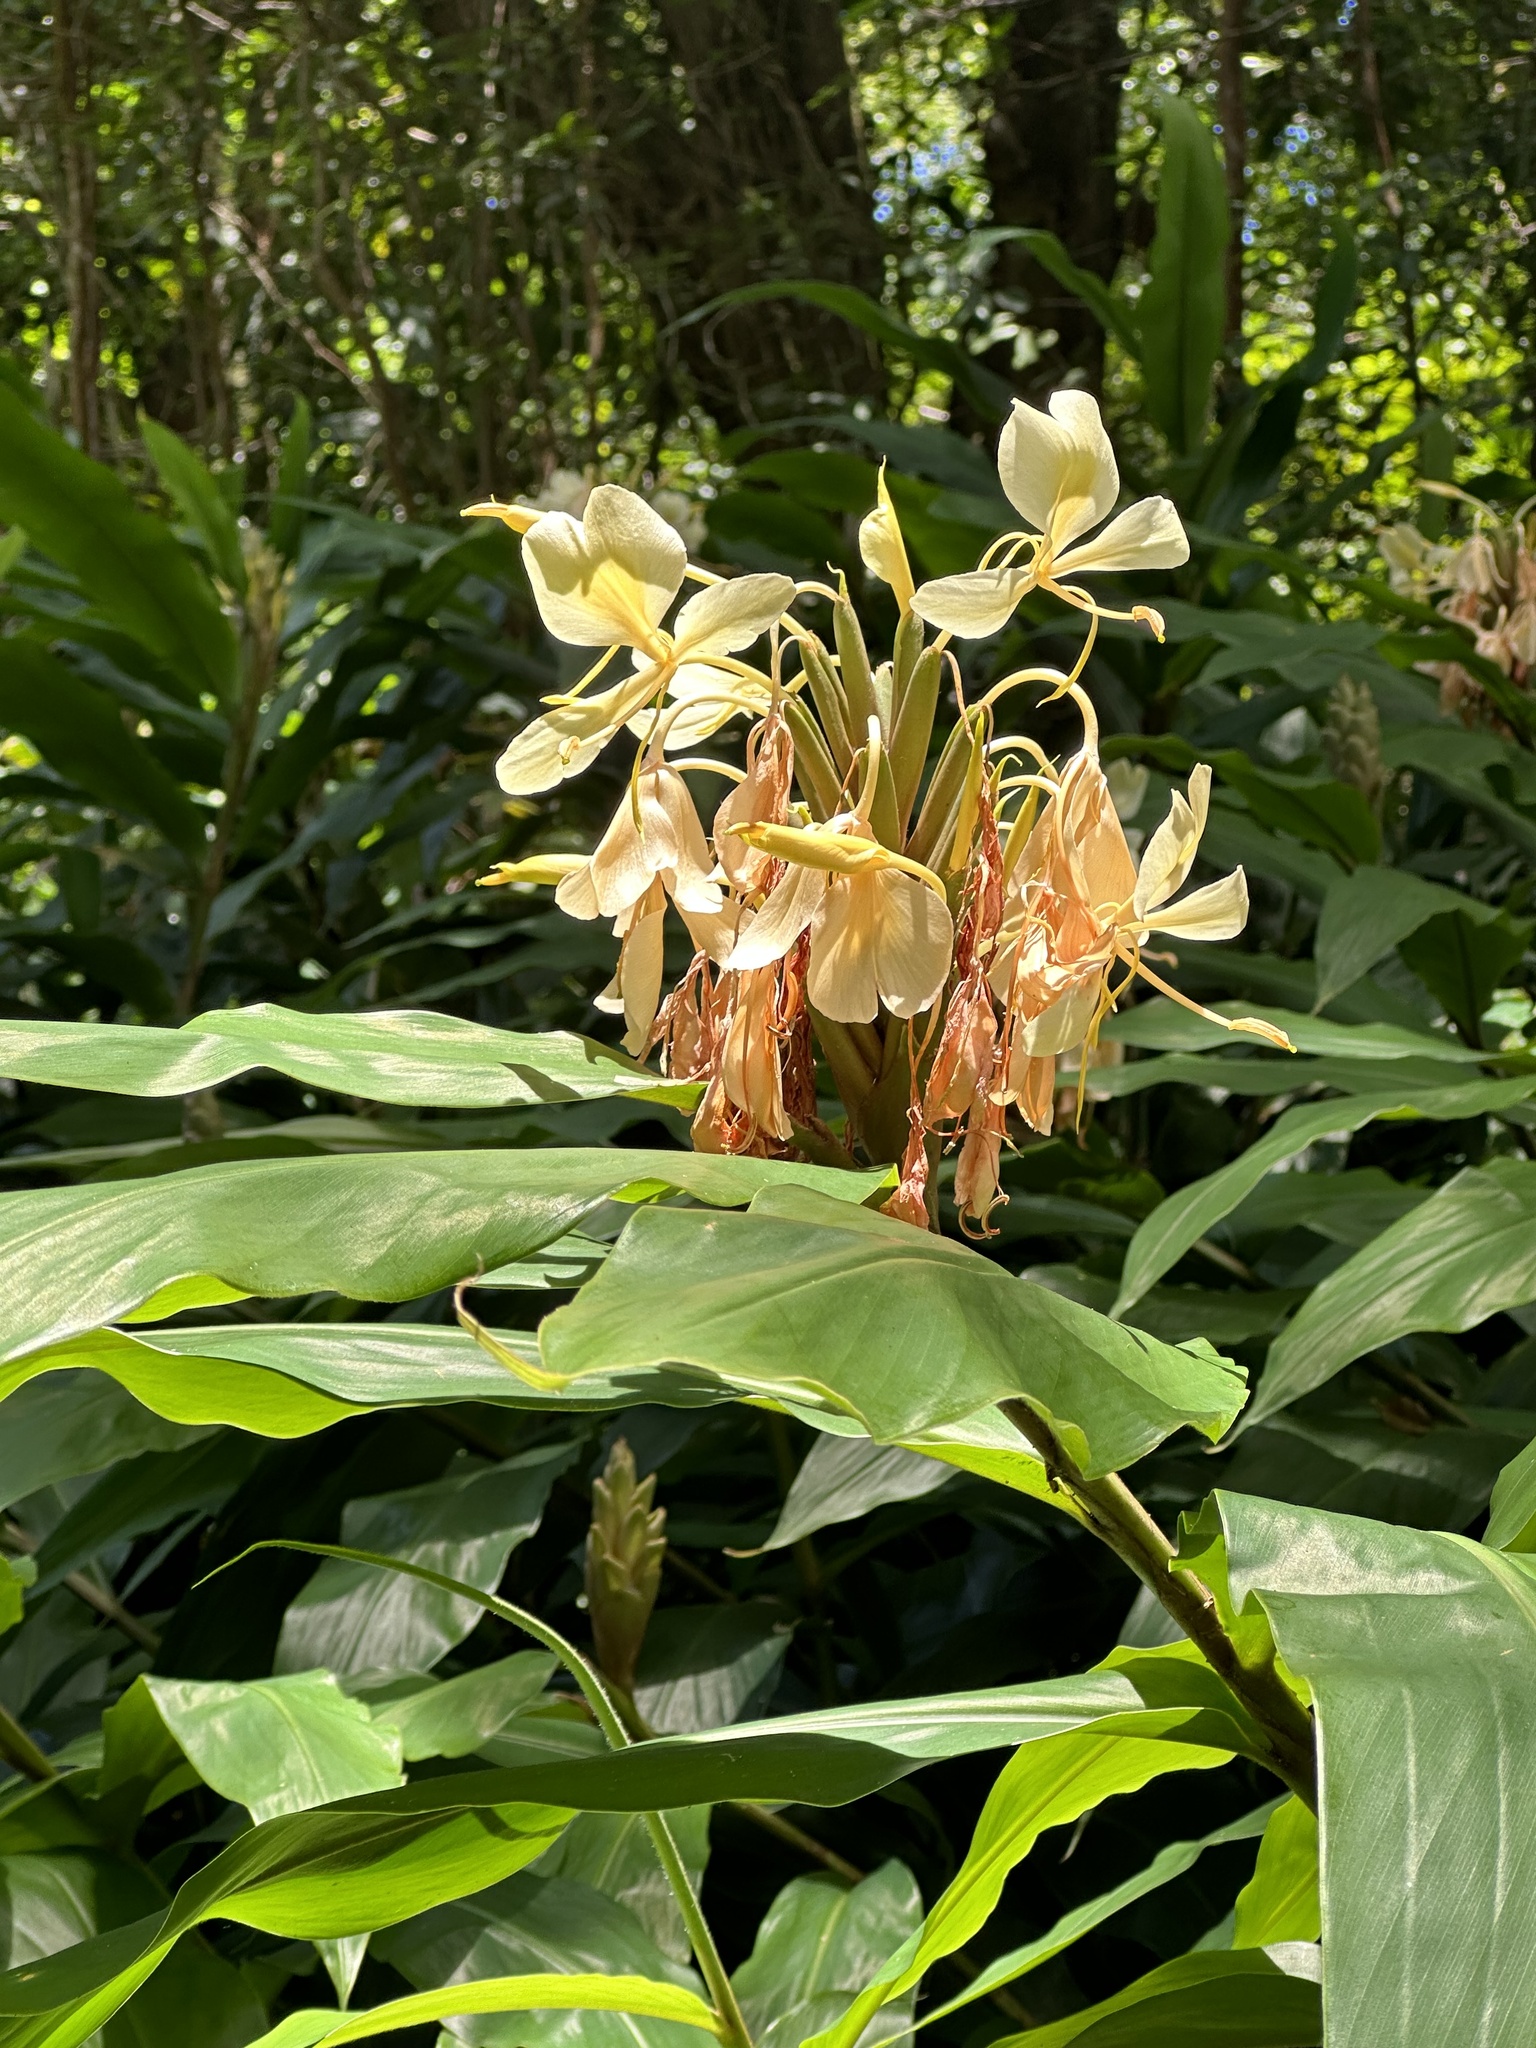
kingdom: Plantae
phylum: Tracheophyta
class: Liliopsida
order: Zingiberales
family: Zingiberaceae
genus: Hedychium
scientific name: Hedychium flavescens
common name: Yellow ginger
